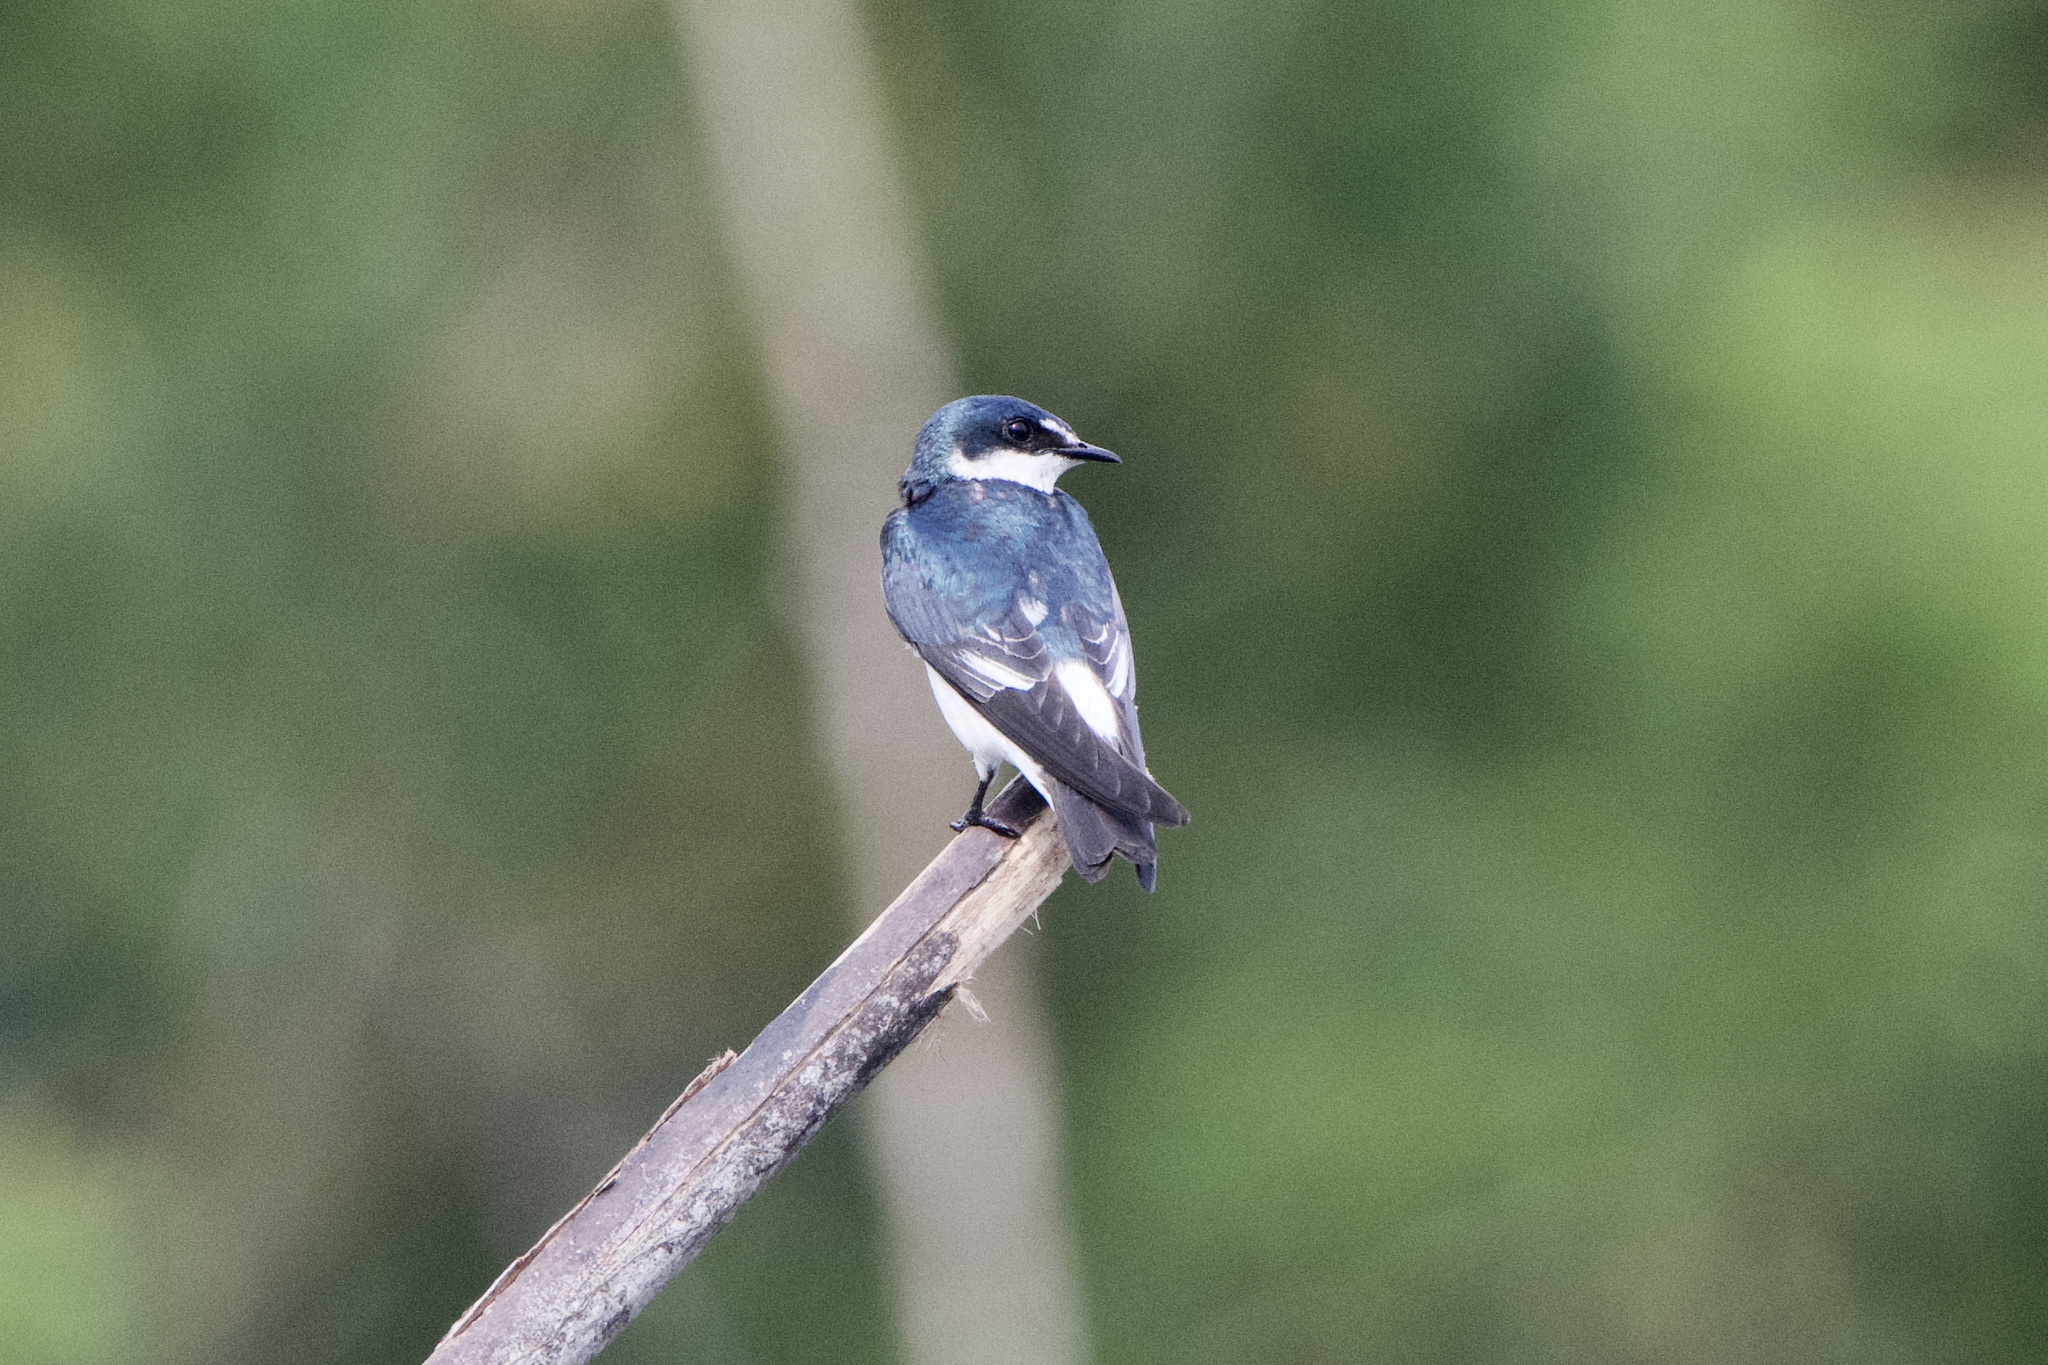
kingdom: Animalia
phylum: Chordata
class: Aves
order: Passeriformes
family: Hirundinidae
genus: Tachycineta
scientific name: Tachycineta albilinea
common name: Mangrove swallow
